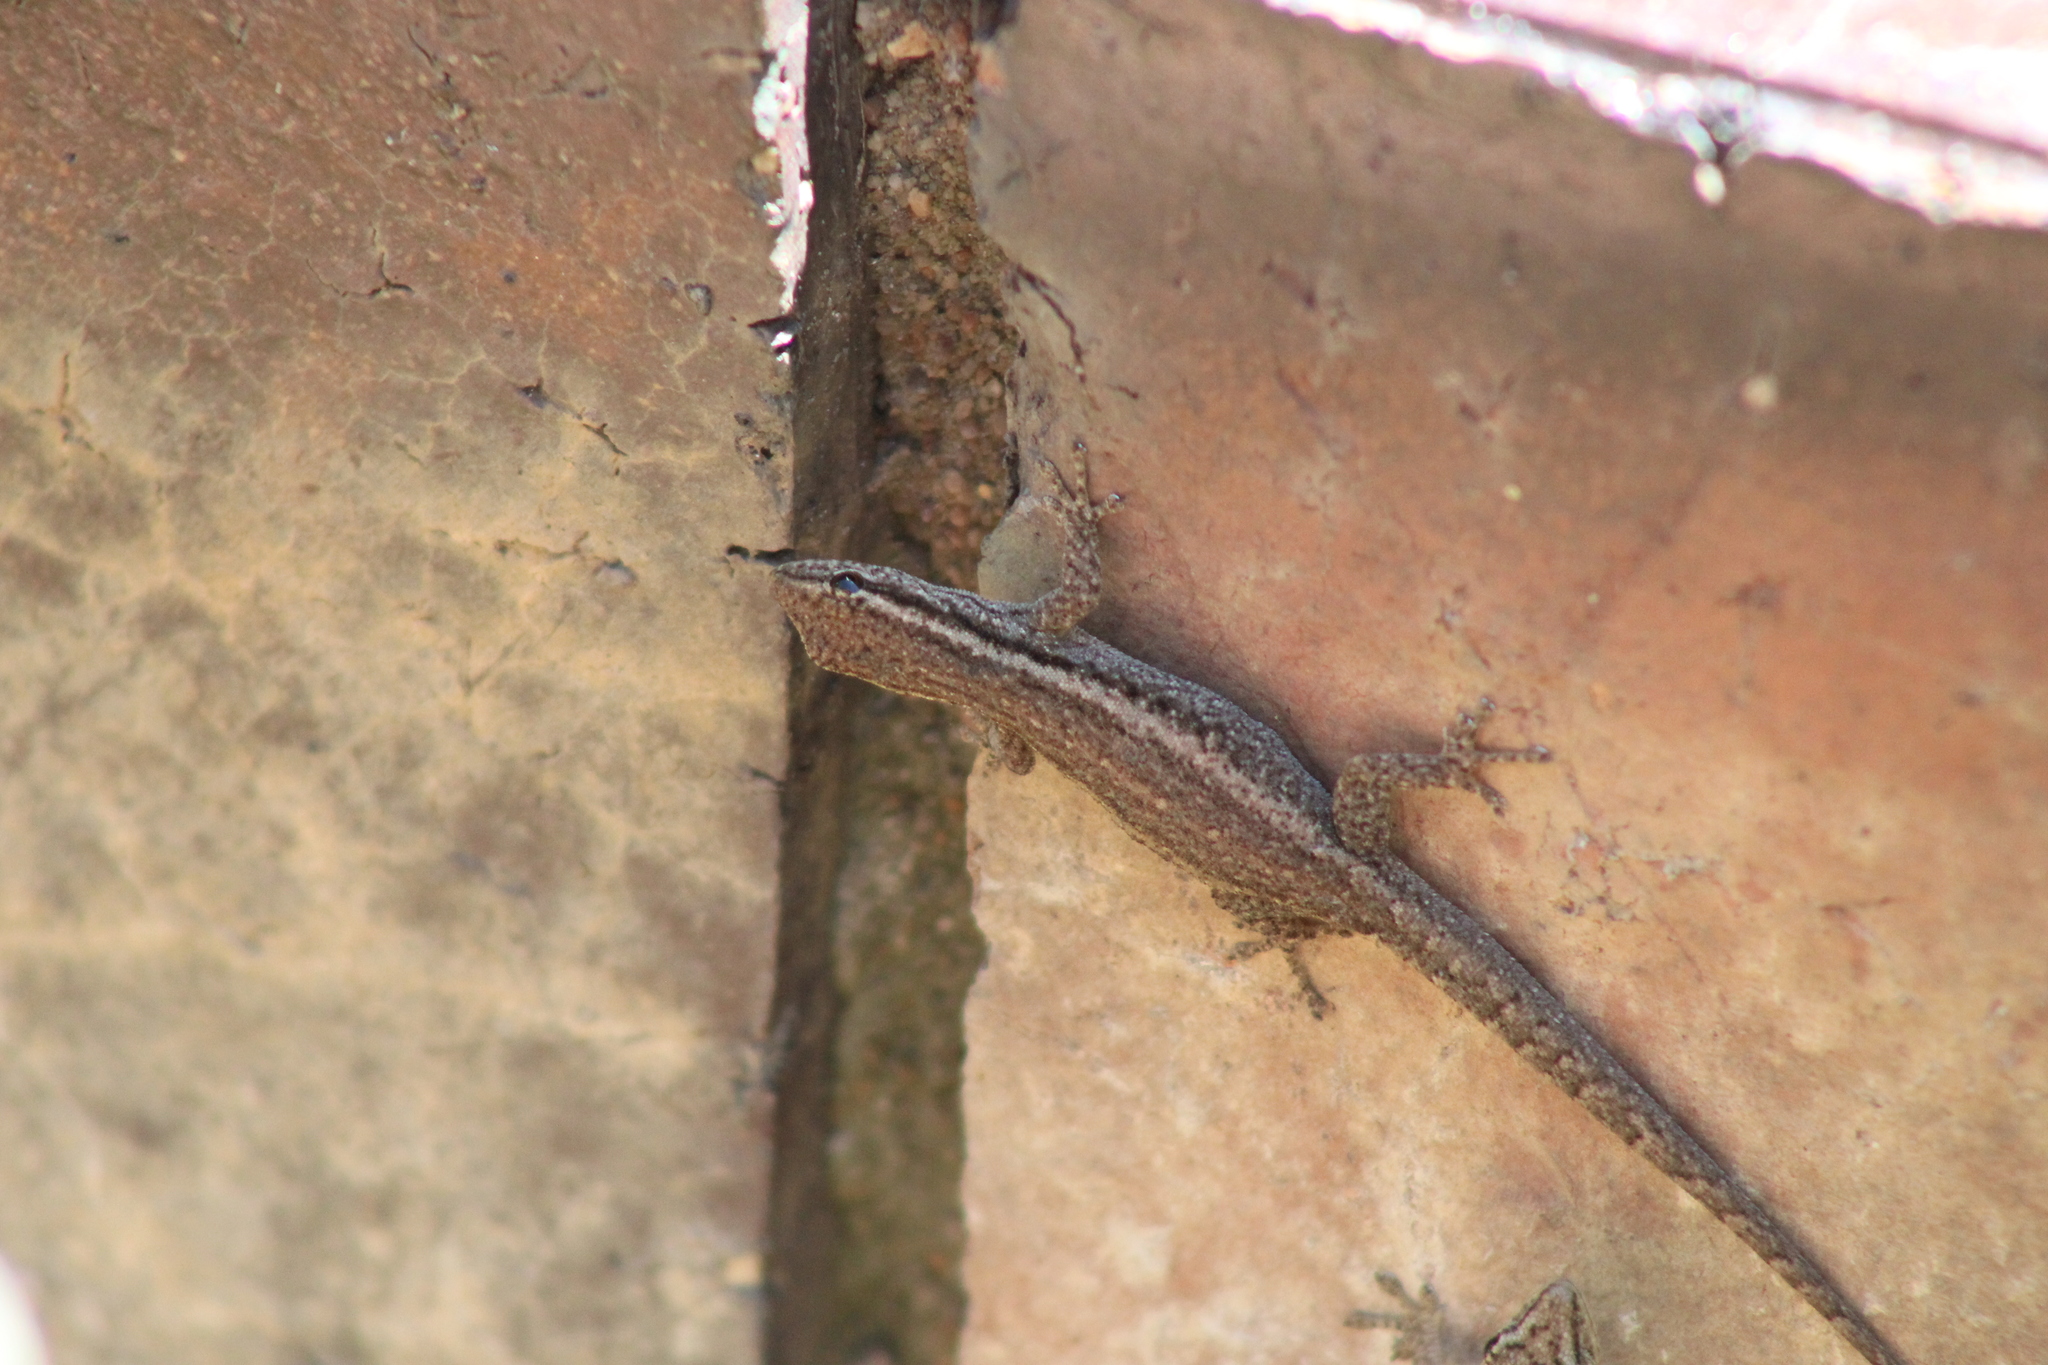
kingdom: Animalia
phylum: Chordata
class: Squamata
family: Gekkonidae
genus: Lygodactylus
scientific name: Lygodactylus capensis
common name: Cape dwarf gecko
